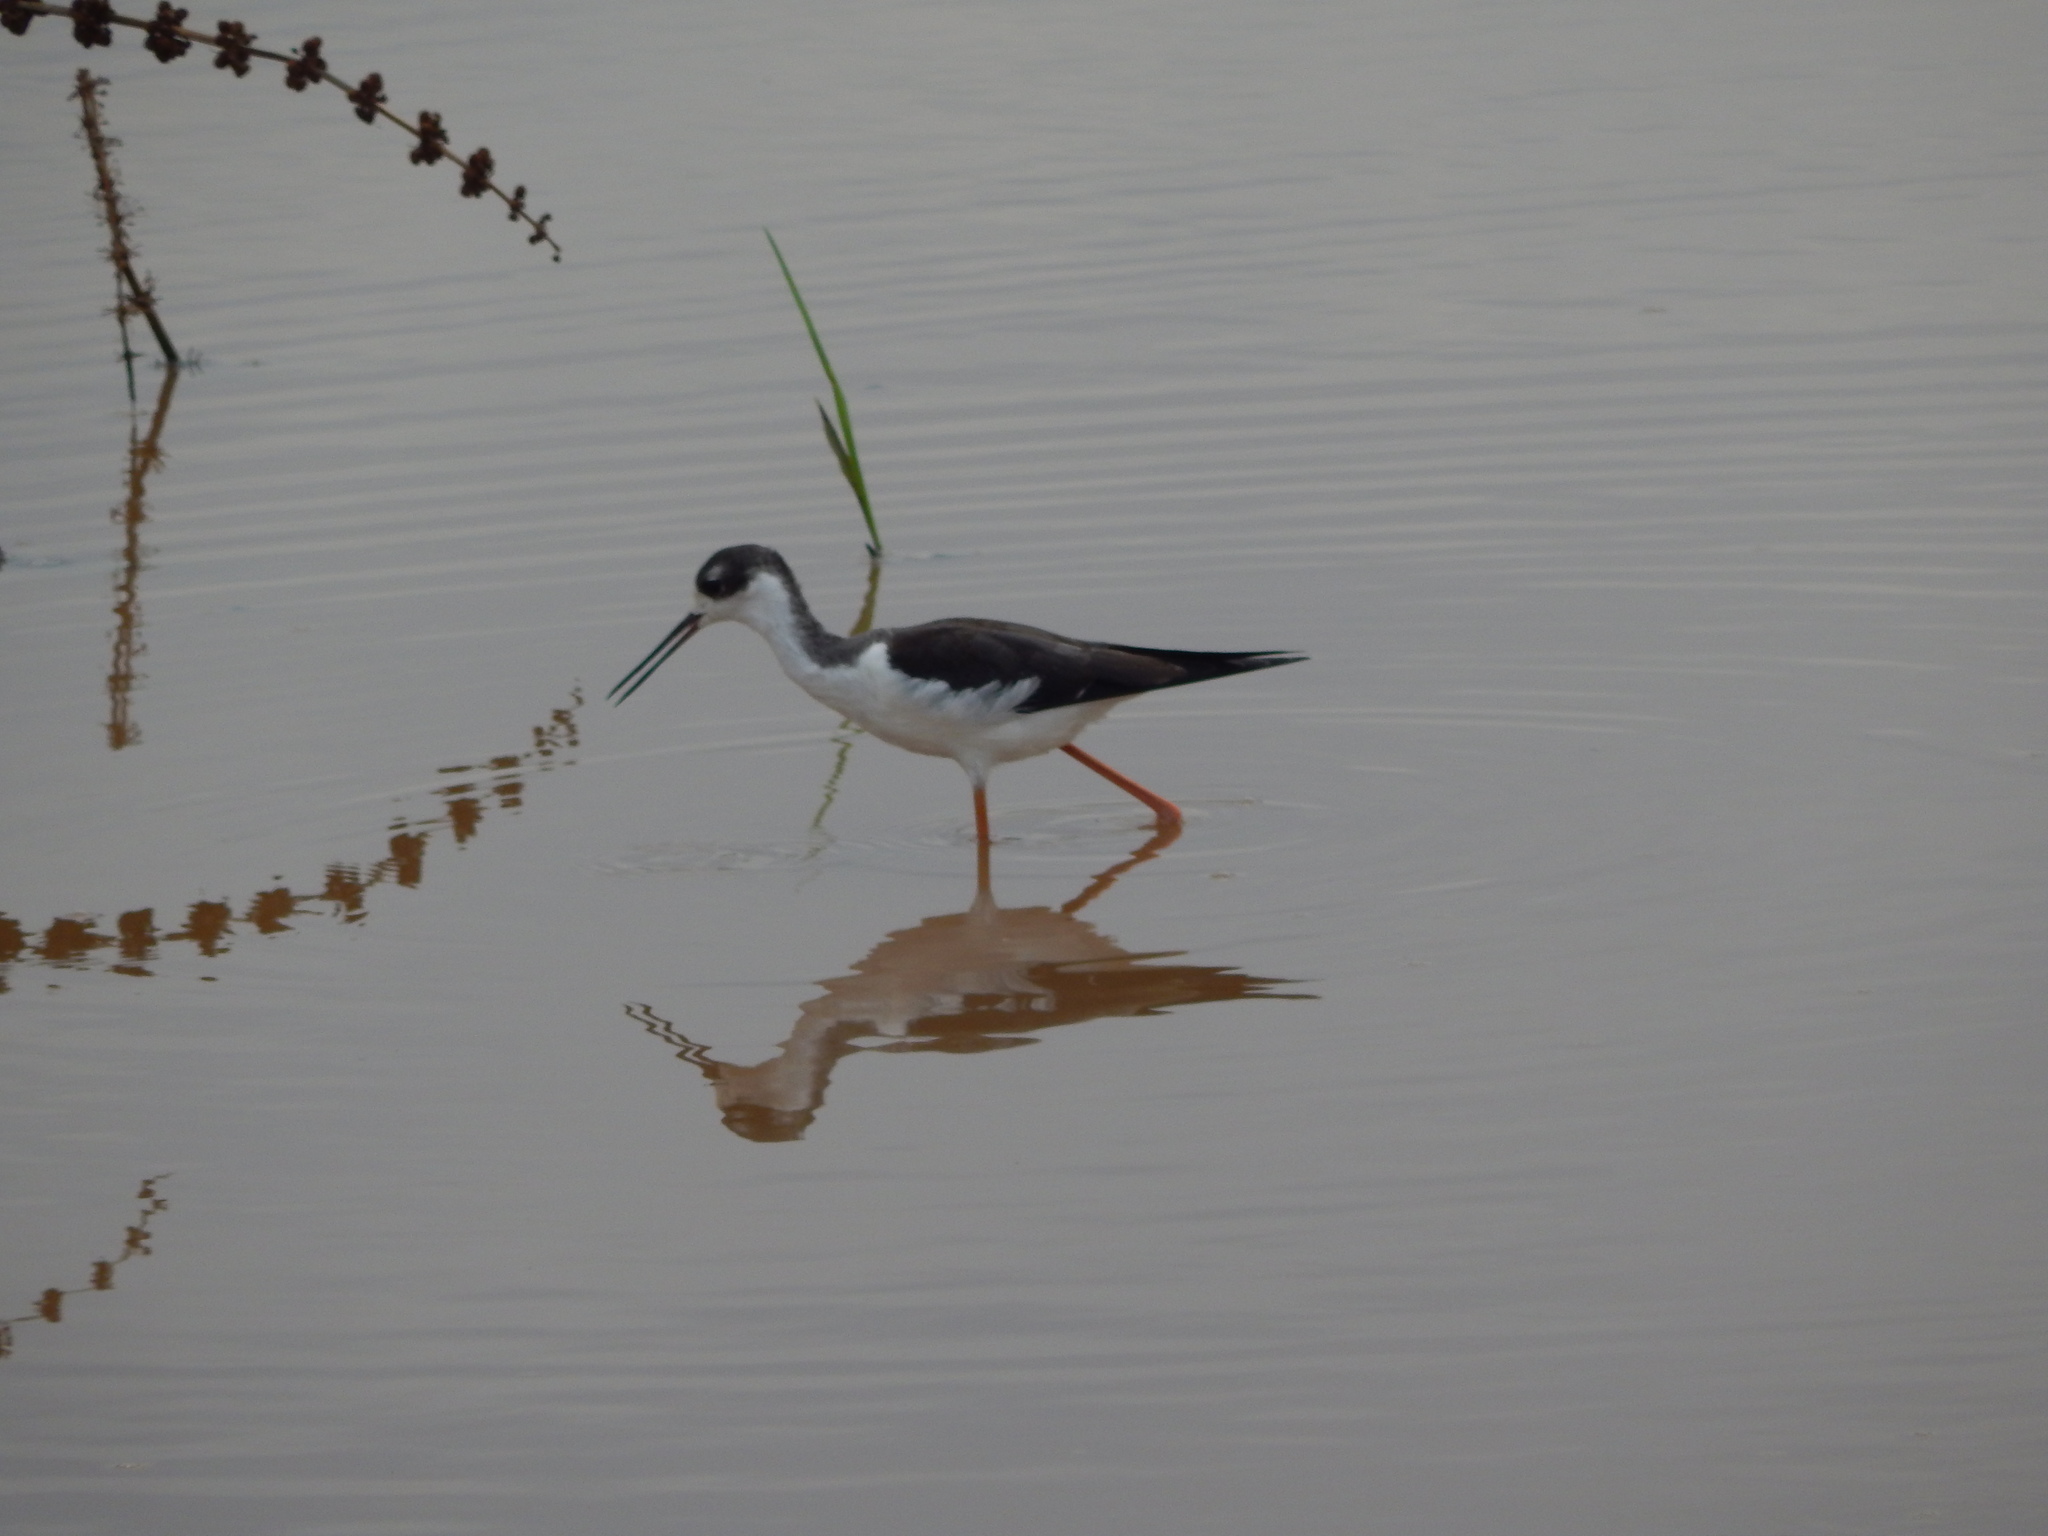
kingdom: Animalia
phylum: Chordata
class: Aves
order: Charadriiformes
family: Recurvirostridae
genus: Himantopus
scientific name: Himantopus mexicanus
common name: Black-necked stilt
